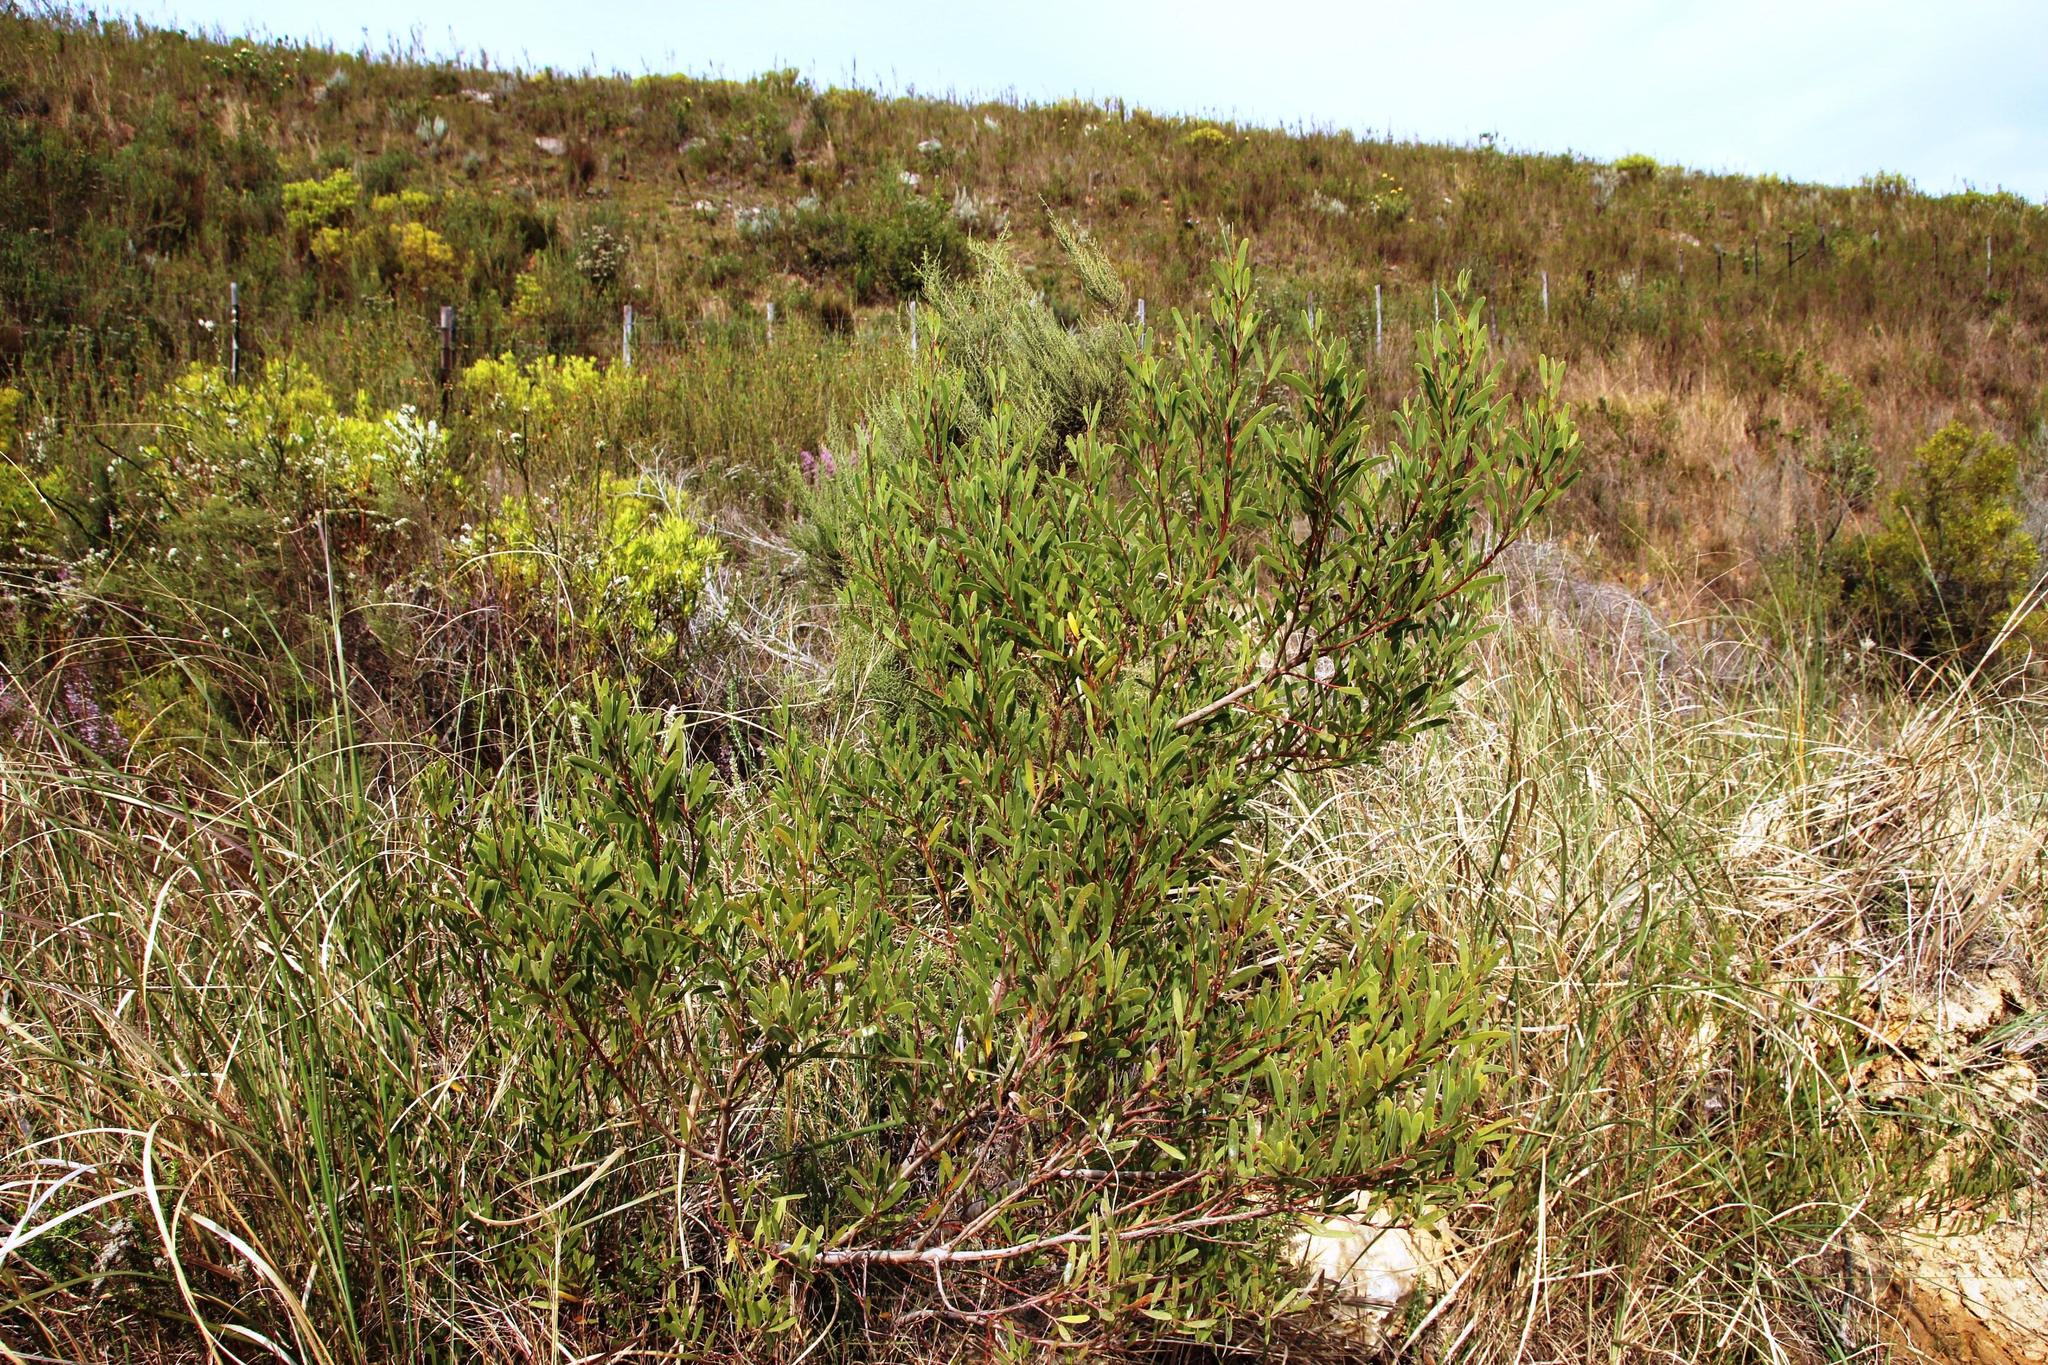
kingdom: Plantae
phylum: Tracheophyta
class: Magnoliopsida
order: Fabales
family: Fabaceae
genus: Acacia
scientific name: Acacia cyclops
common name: Coastal wattle
